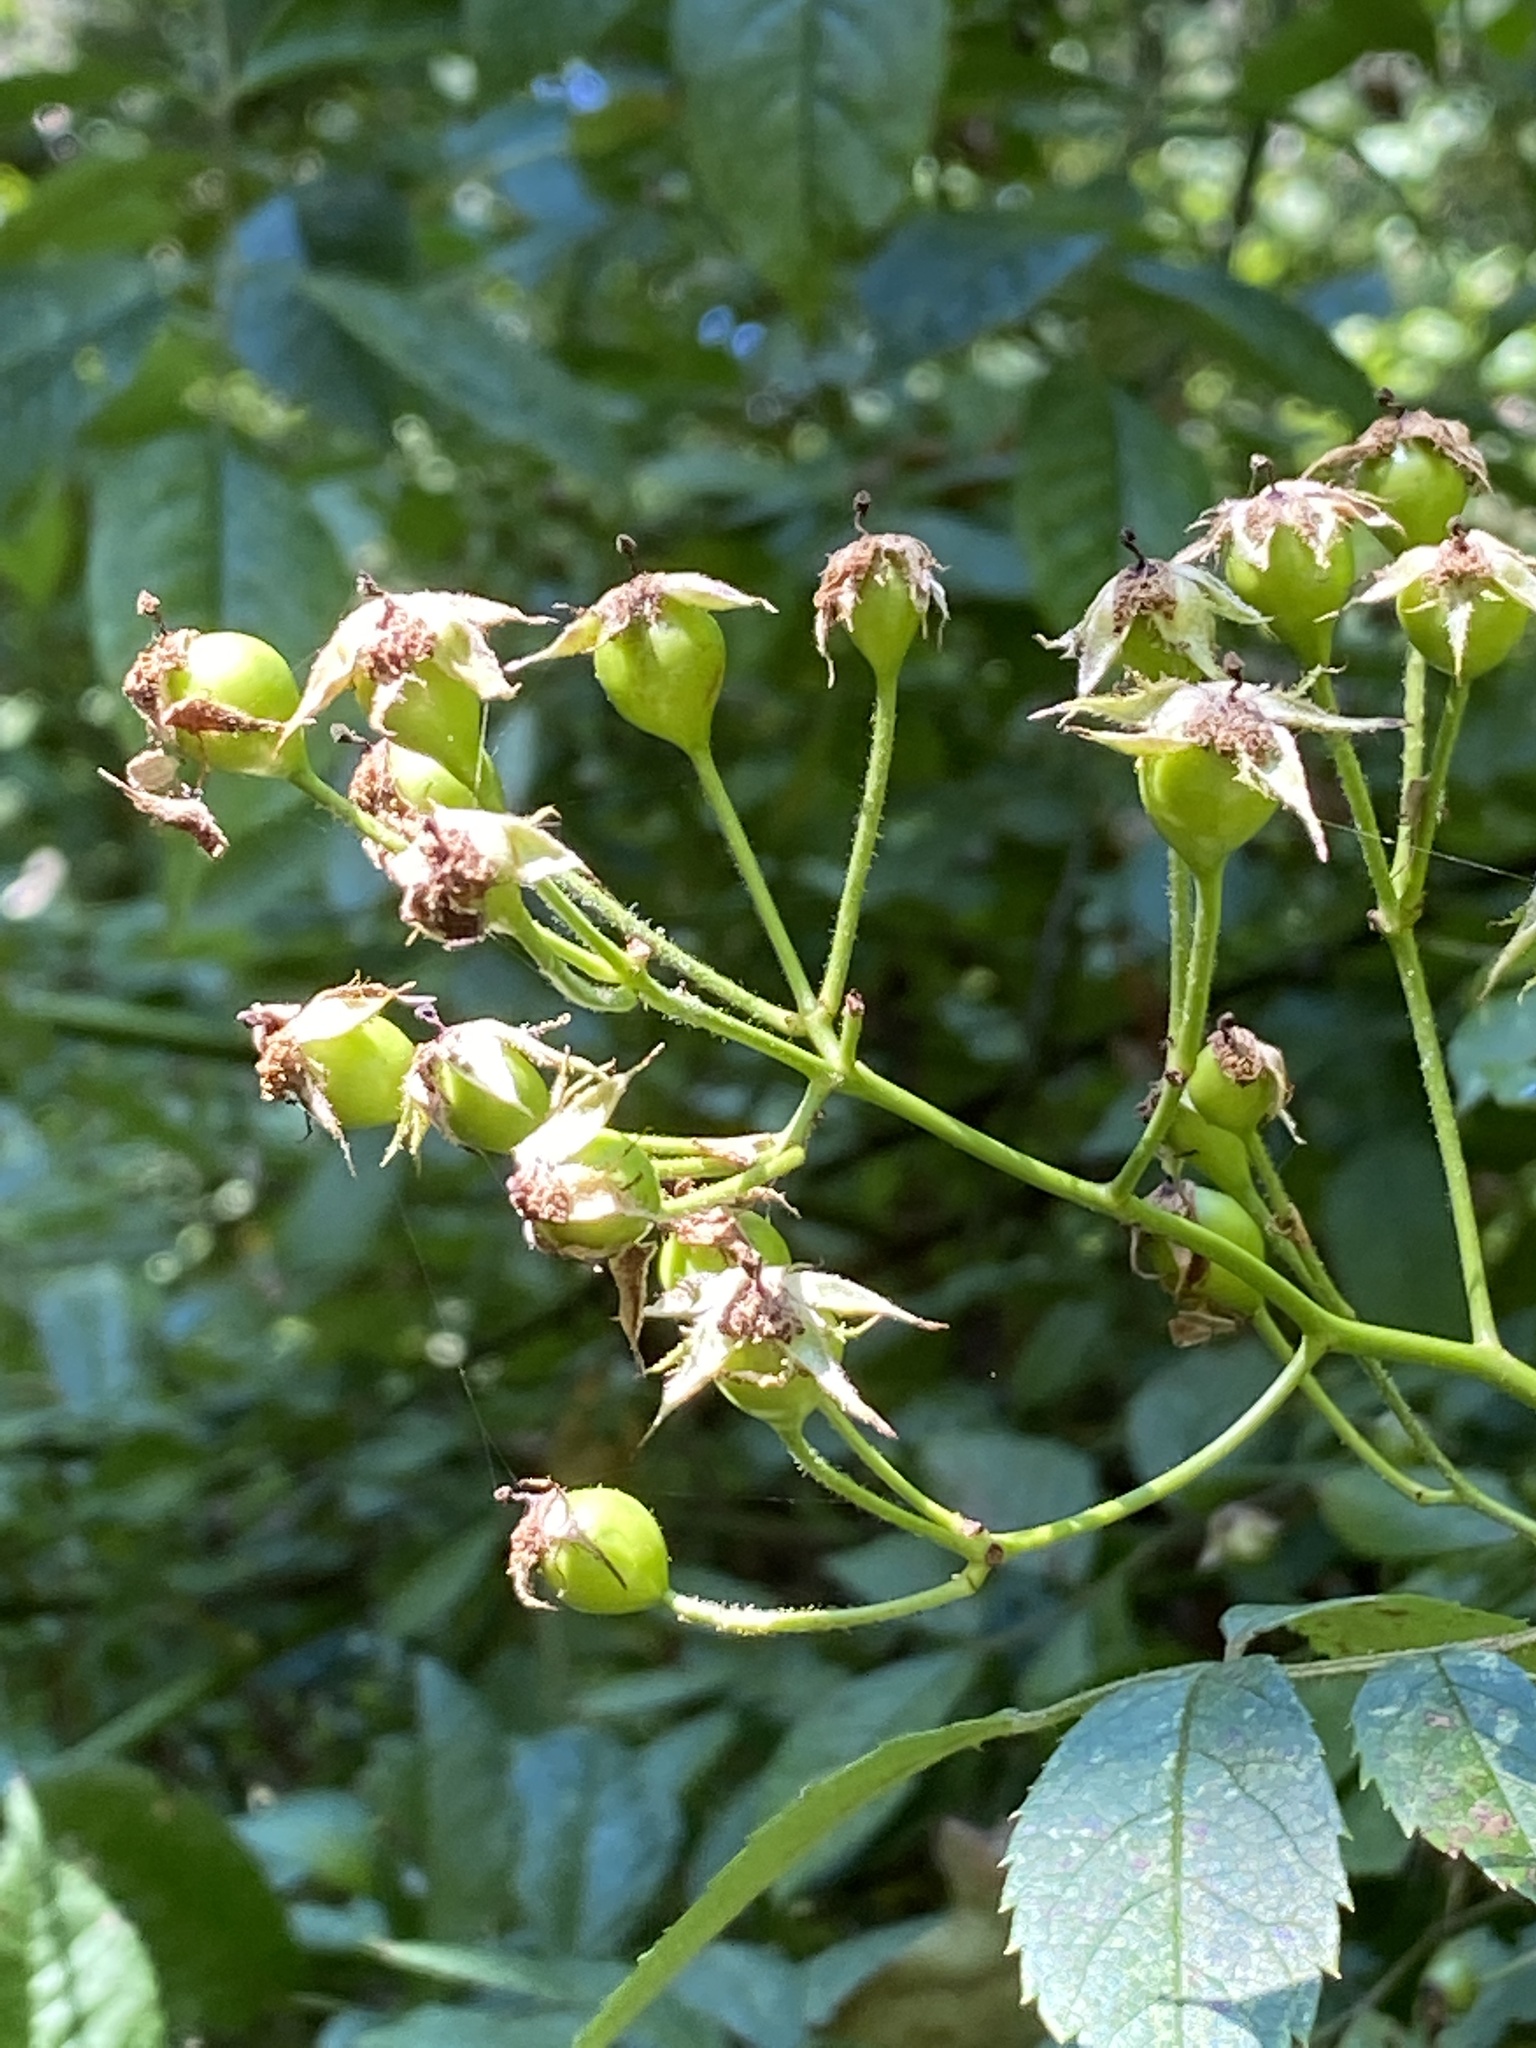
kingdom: Plantae
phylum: Tracheophyta
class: Magnoliopsida
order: Rosales
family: Rosaceae
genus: Rosa
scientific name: Rosa multiflora
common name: Multiflora rose
